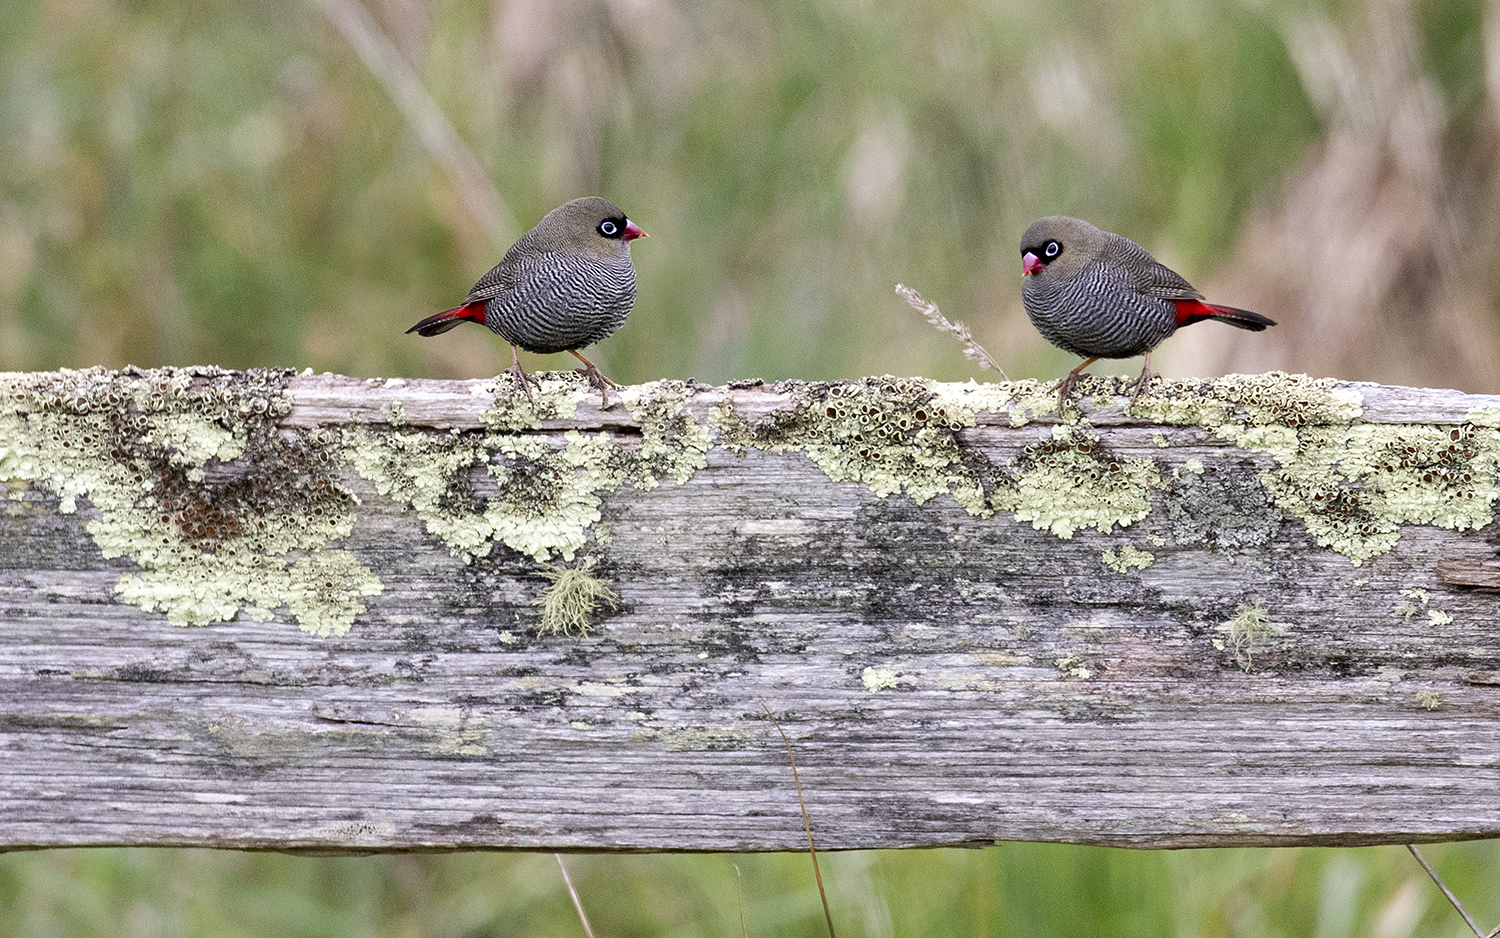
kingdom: Animalia
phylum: Chordata
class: Aves
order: Passeriformes
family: Estrildidae
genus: Stagonopleura
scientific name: Stagonopleura bella
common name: Beautiful firetail
